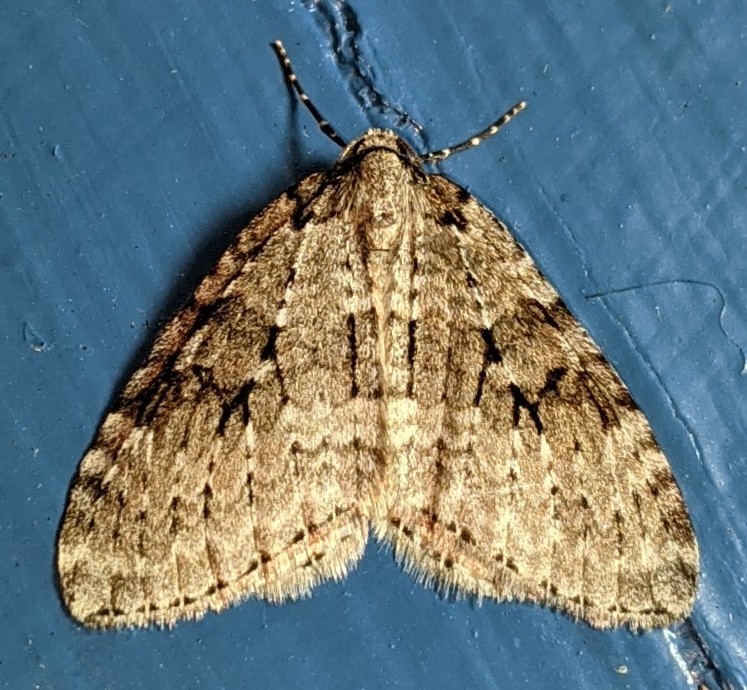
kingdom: Animalia
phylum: Arthropoda
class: Insecta
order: Lepidoptera
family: Geometridae
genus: Epirrita
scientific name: Epirrita autumnata
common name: Autumnal moth
